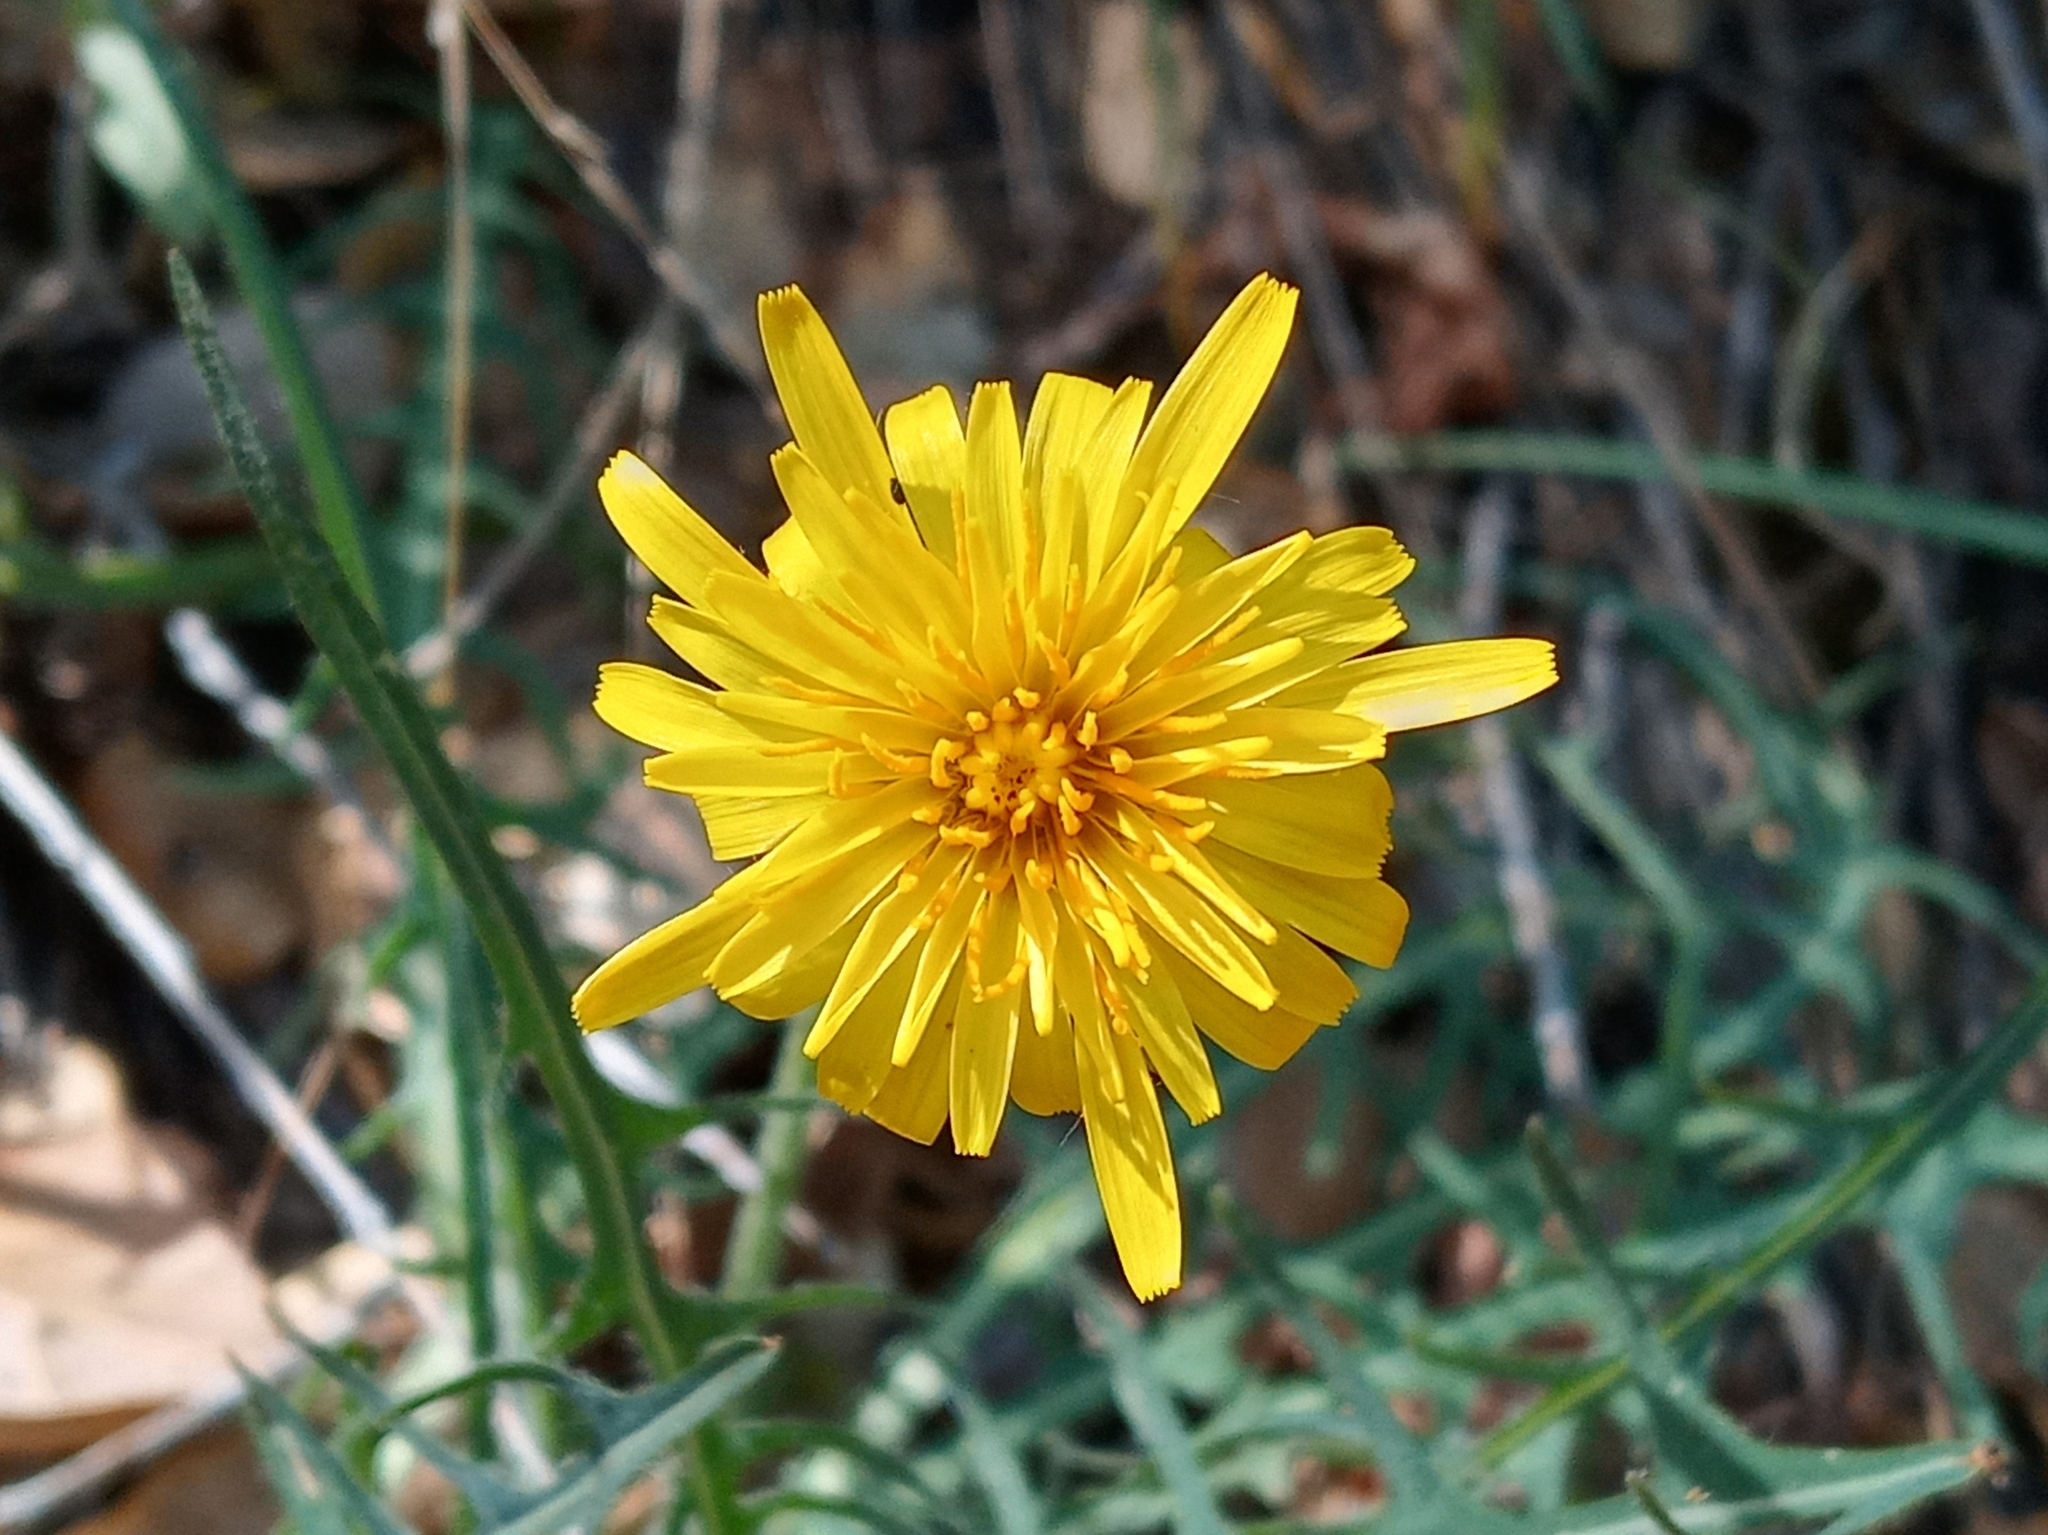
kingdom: Plantae
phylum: Tracheophyta
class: Magnoliopsida
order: Asterales
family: Asteraceae
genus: Agoseris
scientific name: Agoseris retrorsa
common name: Spearleaf agoseris
